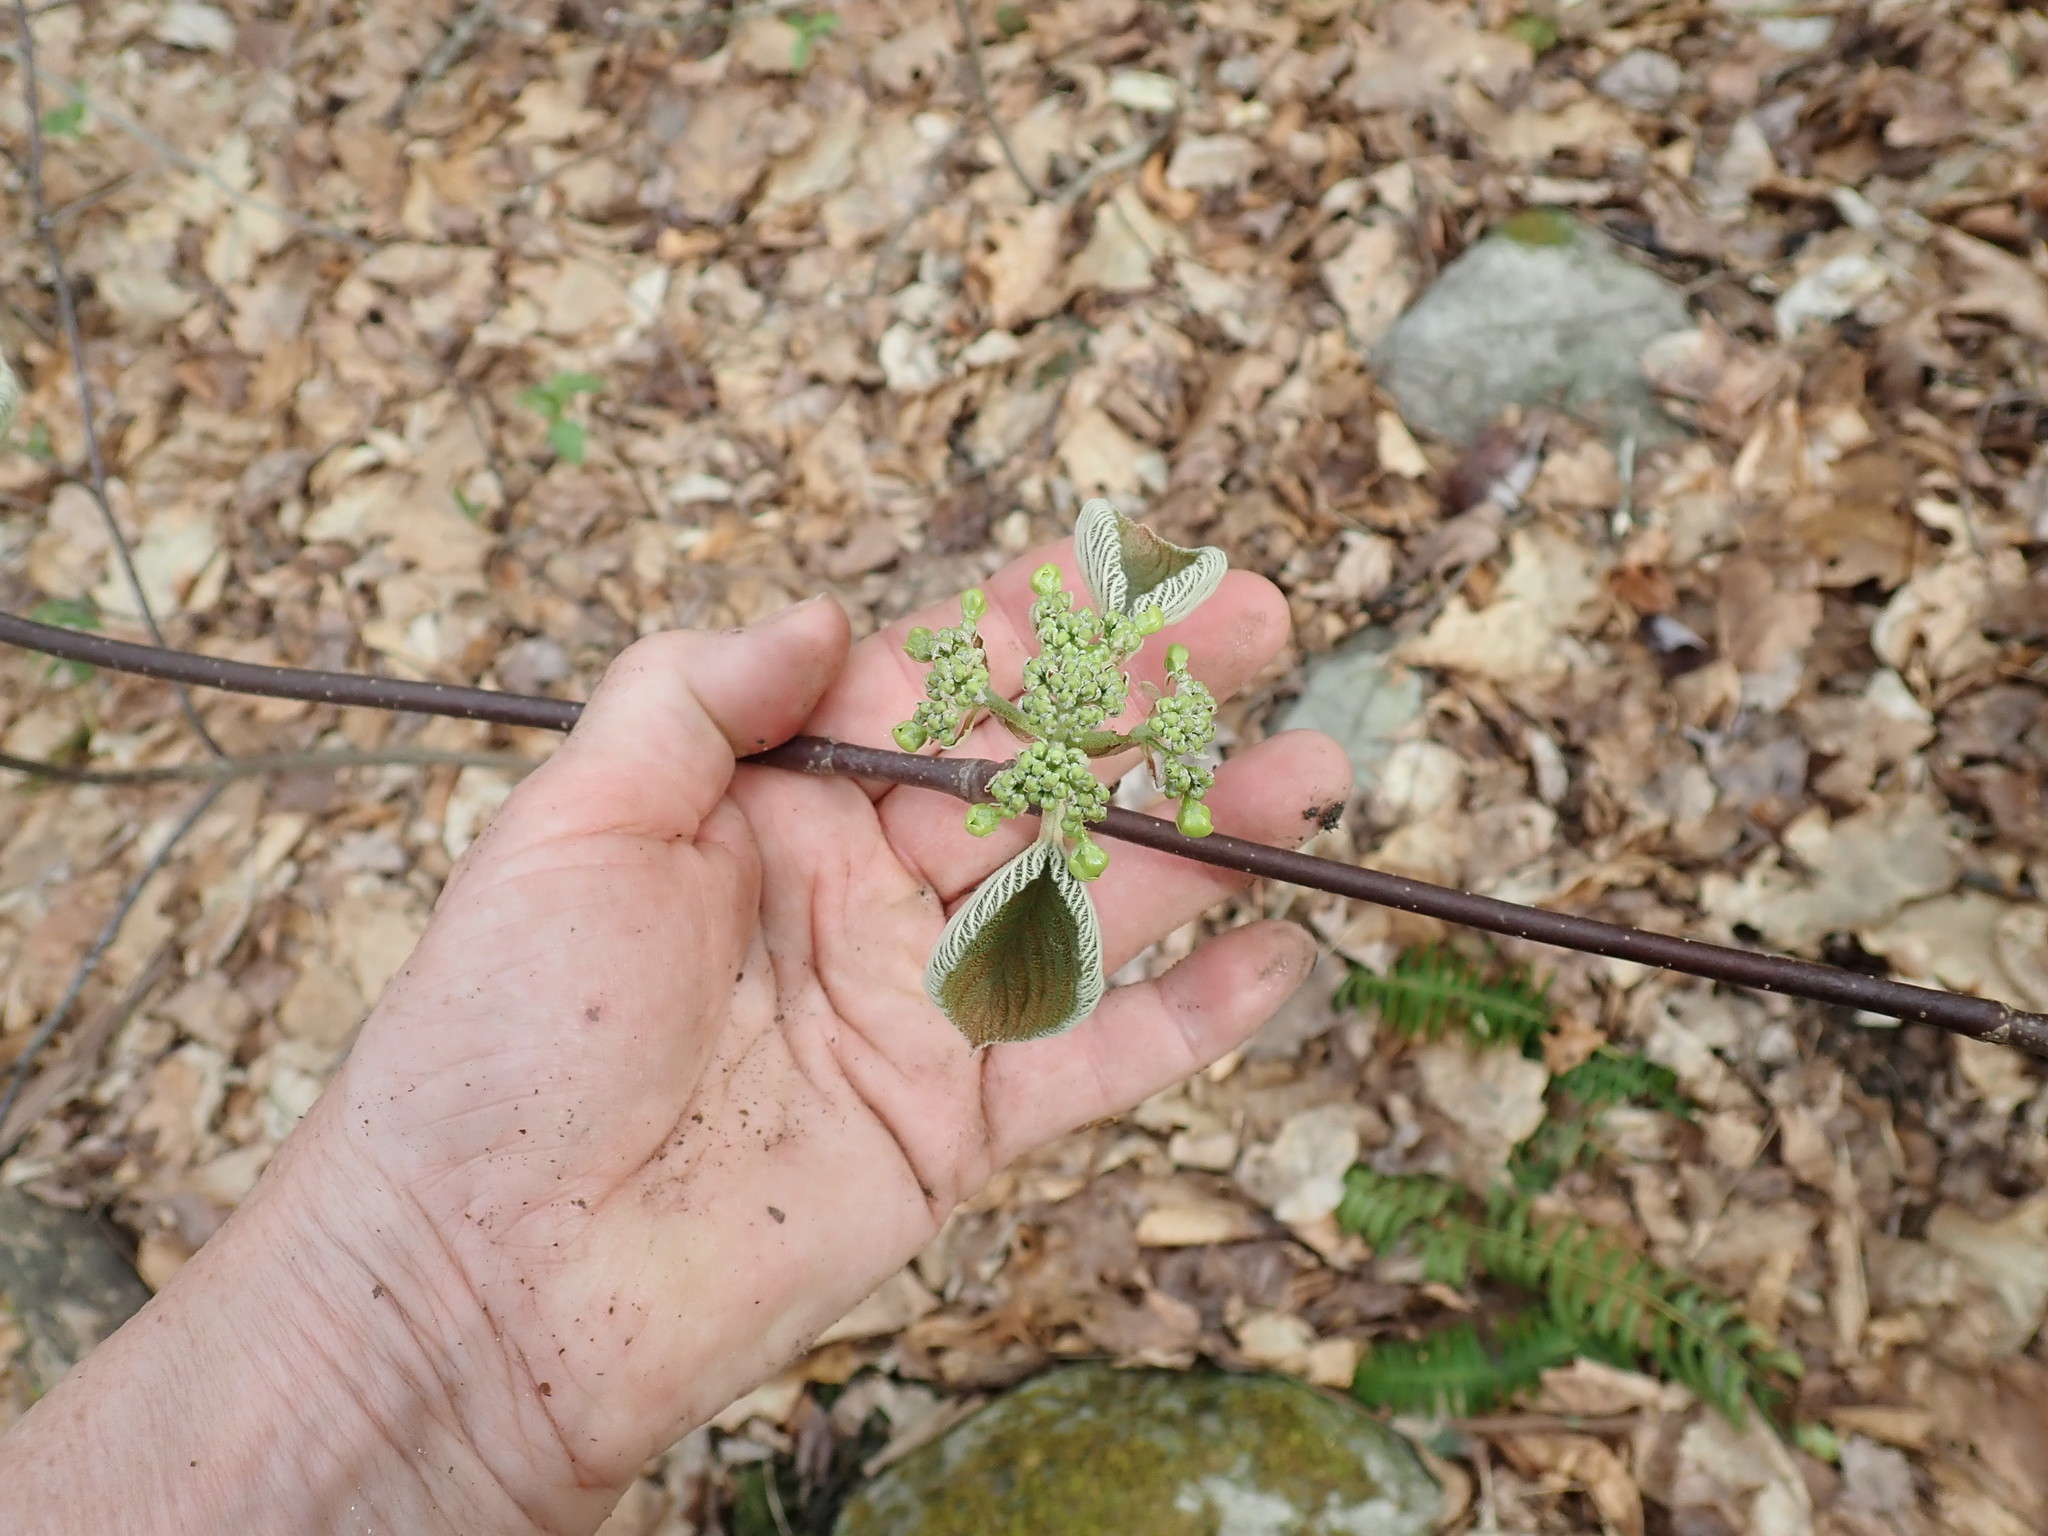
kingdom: Plantae
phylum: Tracheophyta
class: Magnoliopsida
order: Dipsacales
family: Viburnaceae
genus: Viburnum
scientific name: Viburnum lantanoides
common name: Hobblebush
